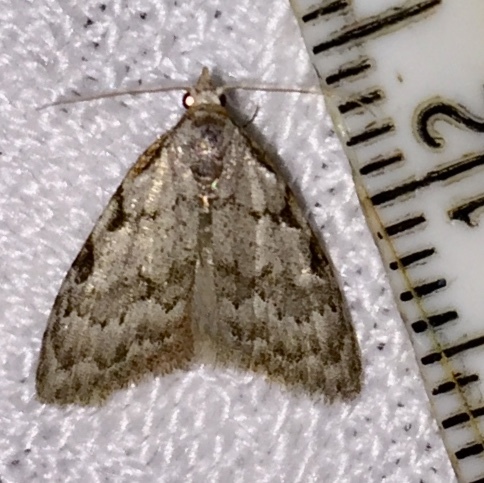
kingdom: Animalia
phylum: Arthropoda
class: Insecta
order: Lepidoptera
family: Nolidae
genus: Nola
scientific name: Nola triquetrana
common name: Three-spotted nola moth
